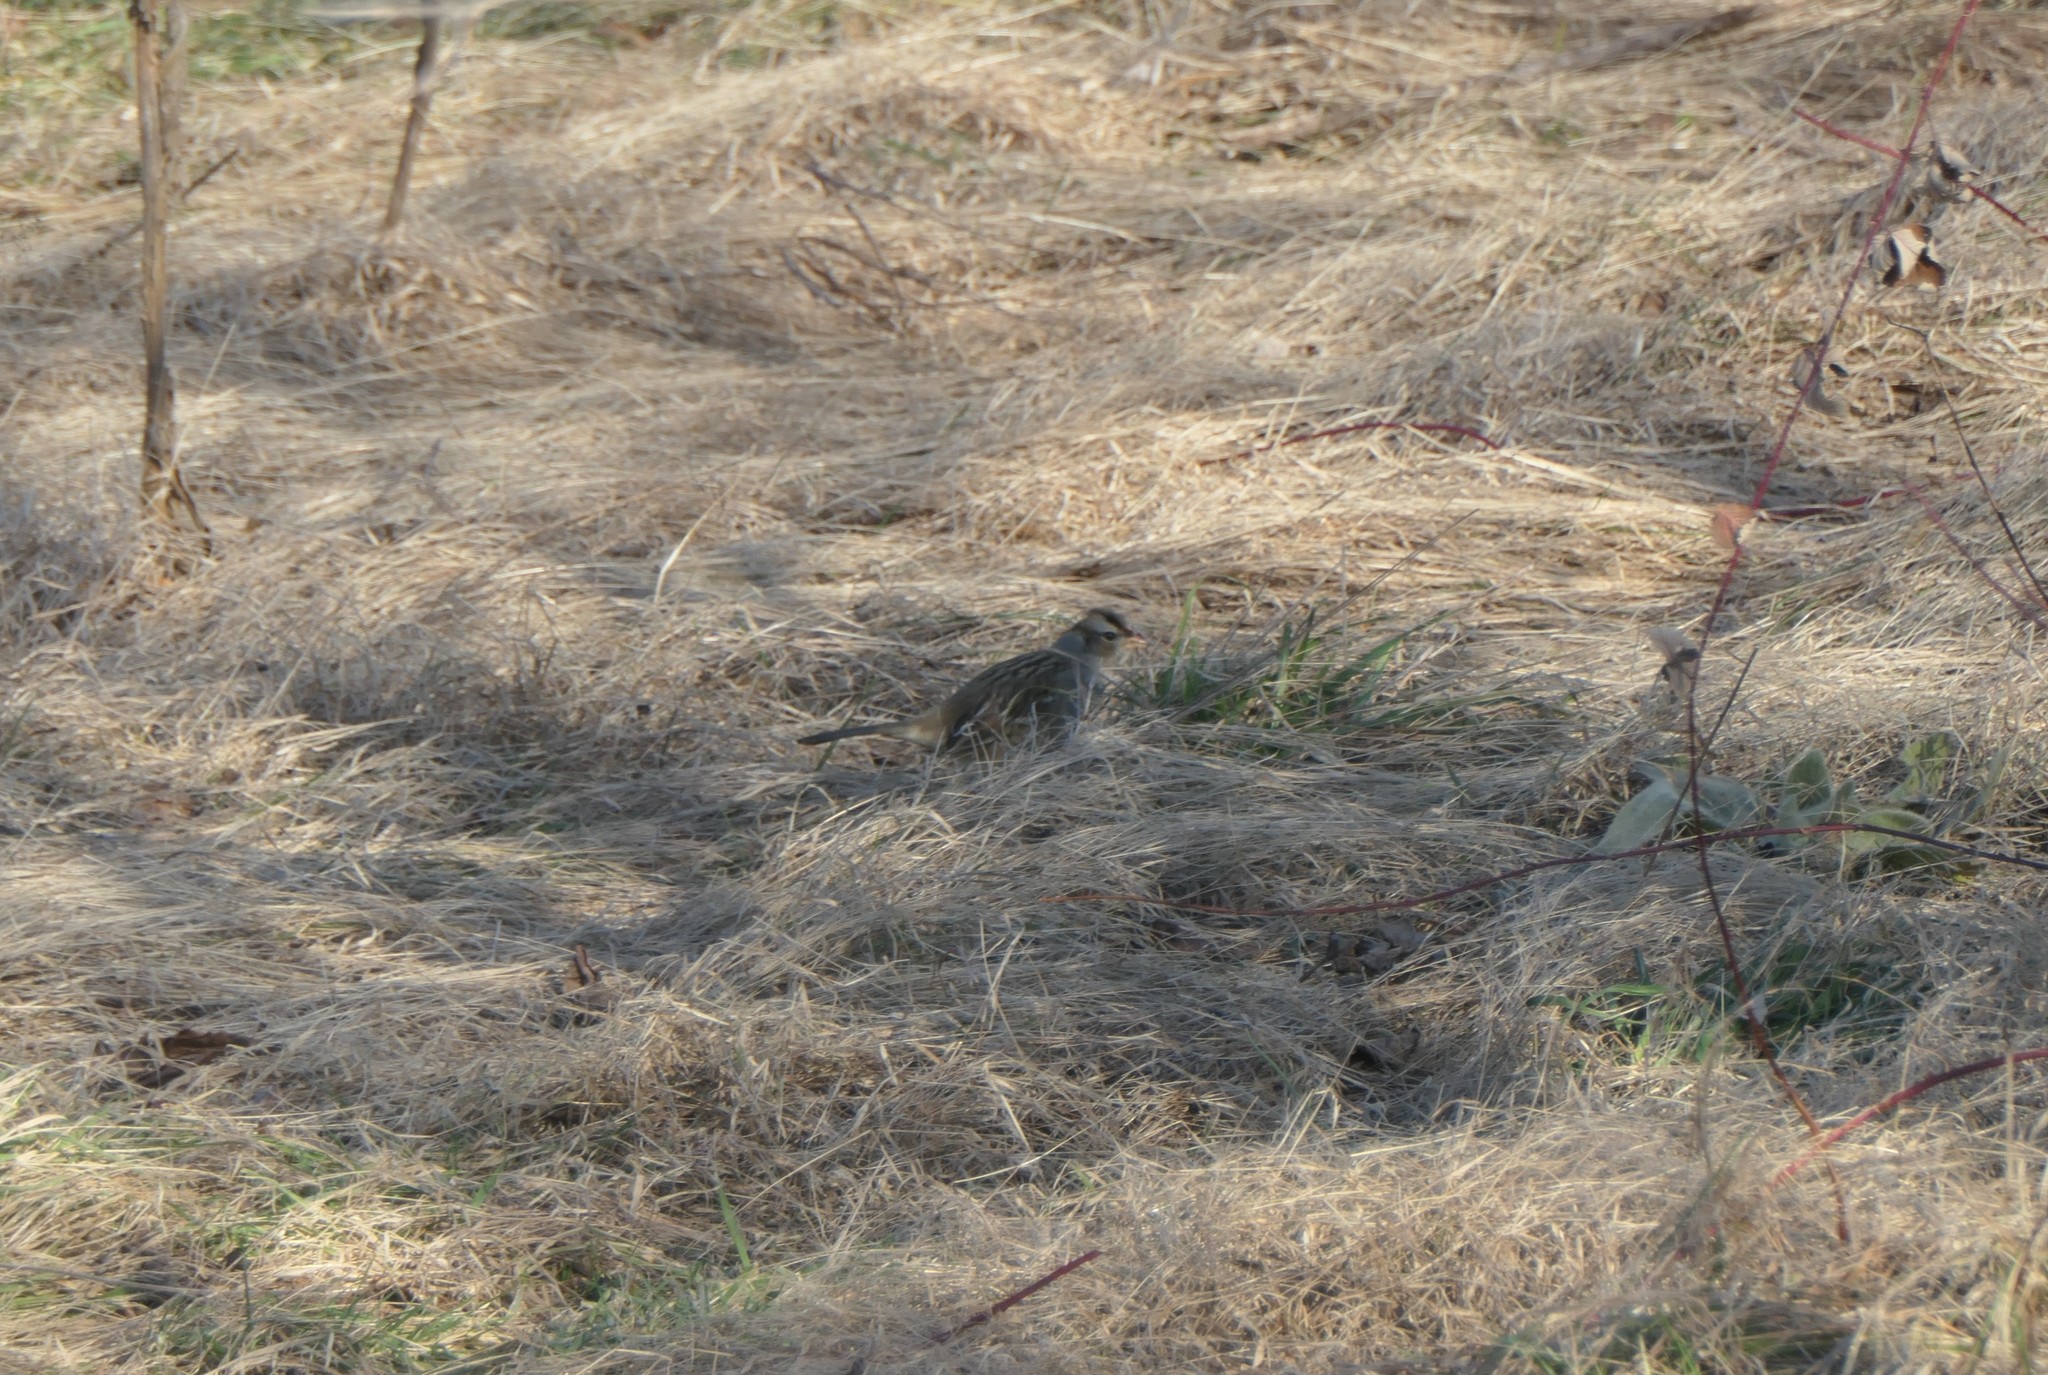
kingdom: Animalia
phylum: Chordata
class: Aves
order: Passeriformes
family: Passerellidae
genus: Zonotrichia
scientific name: Zonotrichia leucophrys
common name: White-crowned sparrow
